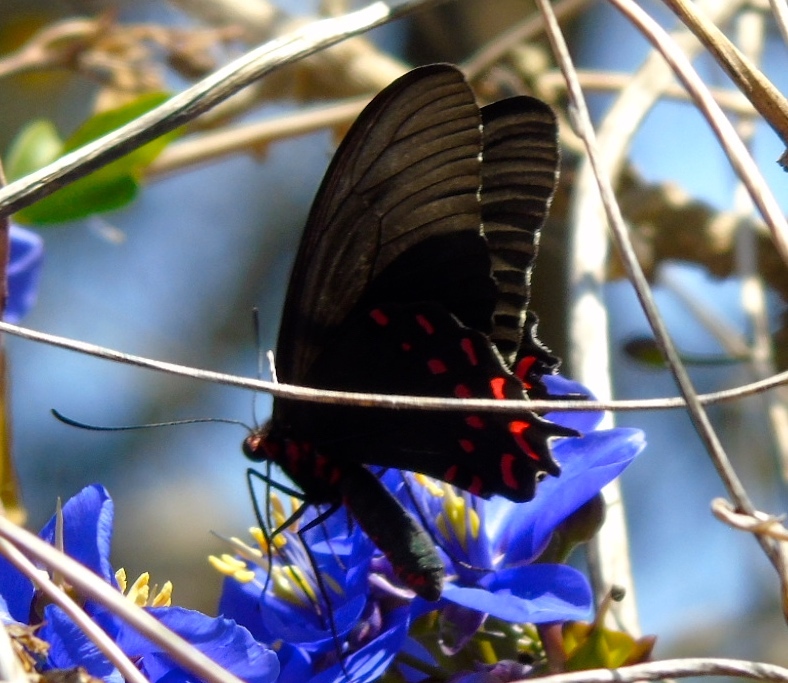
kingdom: Animalia
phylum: Arthropoda
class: Insecta
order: Lepidoptera
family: Papilionidae
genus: Parides
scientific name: Parides photinus
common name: Pink-spotted cattleheart
